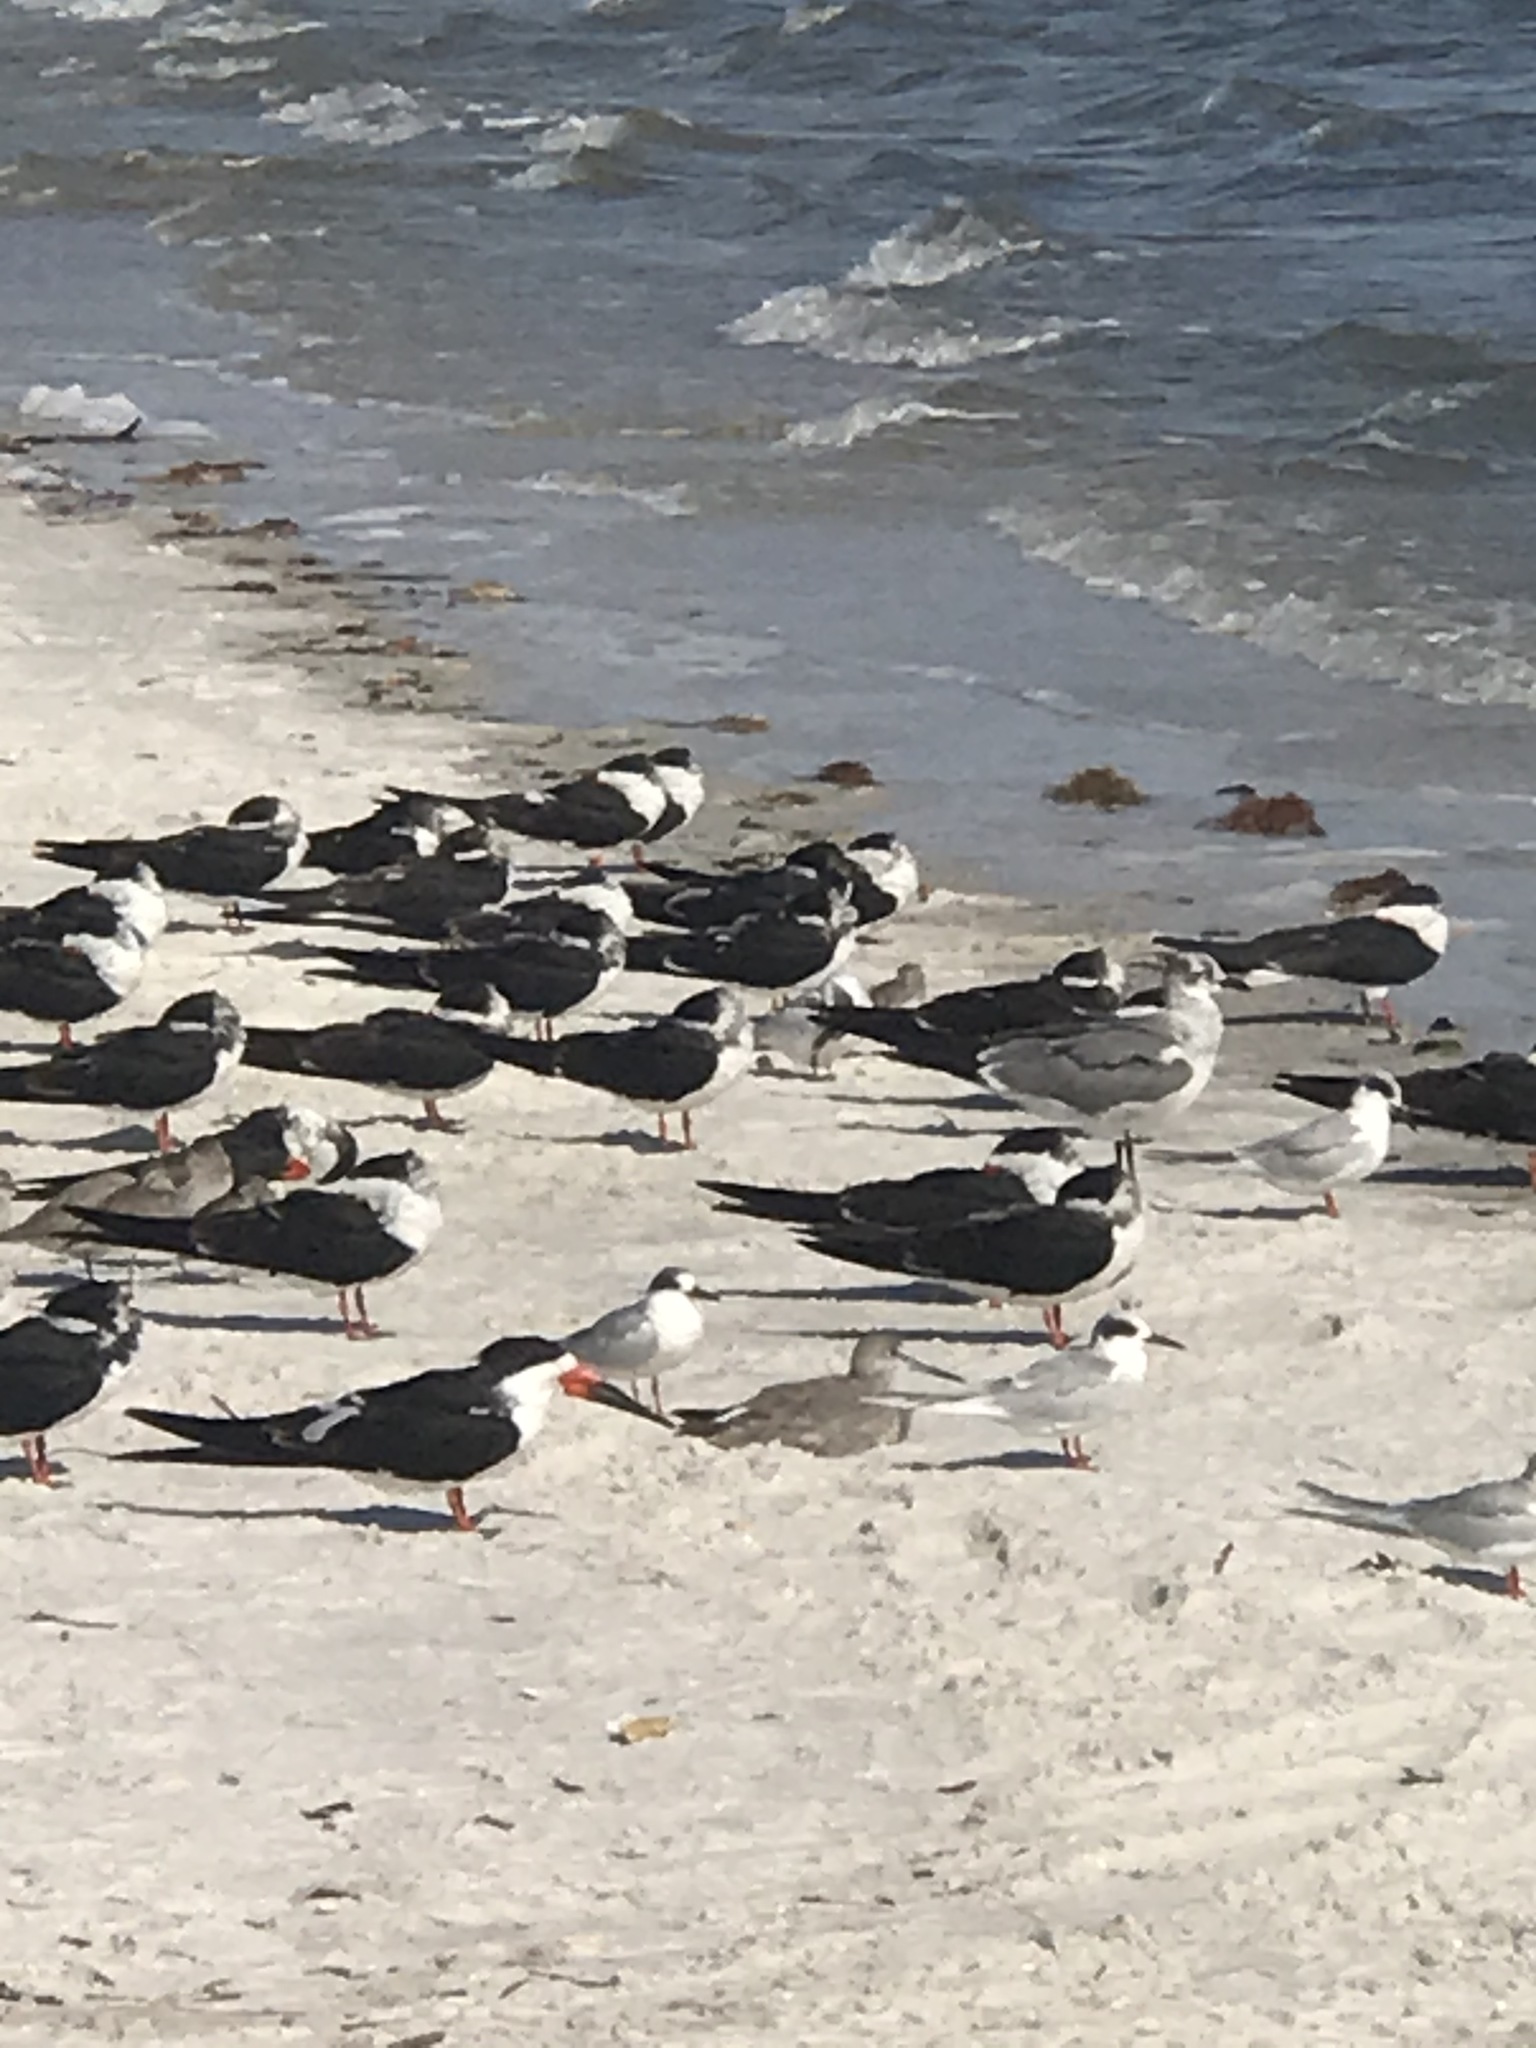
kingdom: Animalia
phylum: Chordata
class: Aves
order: Charadriiformes
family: Laridae
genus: Sterna
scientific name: Sterna forsteri
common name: Forster's tern
